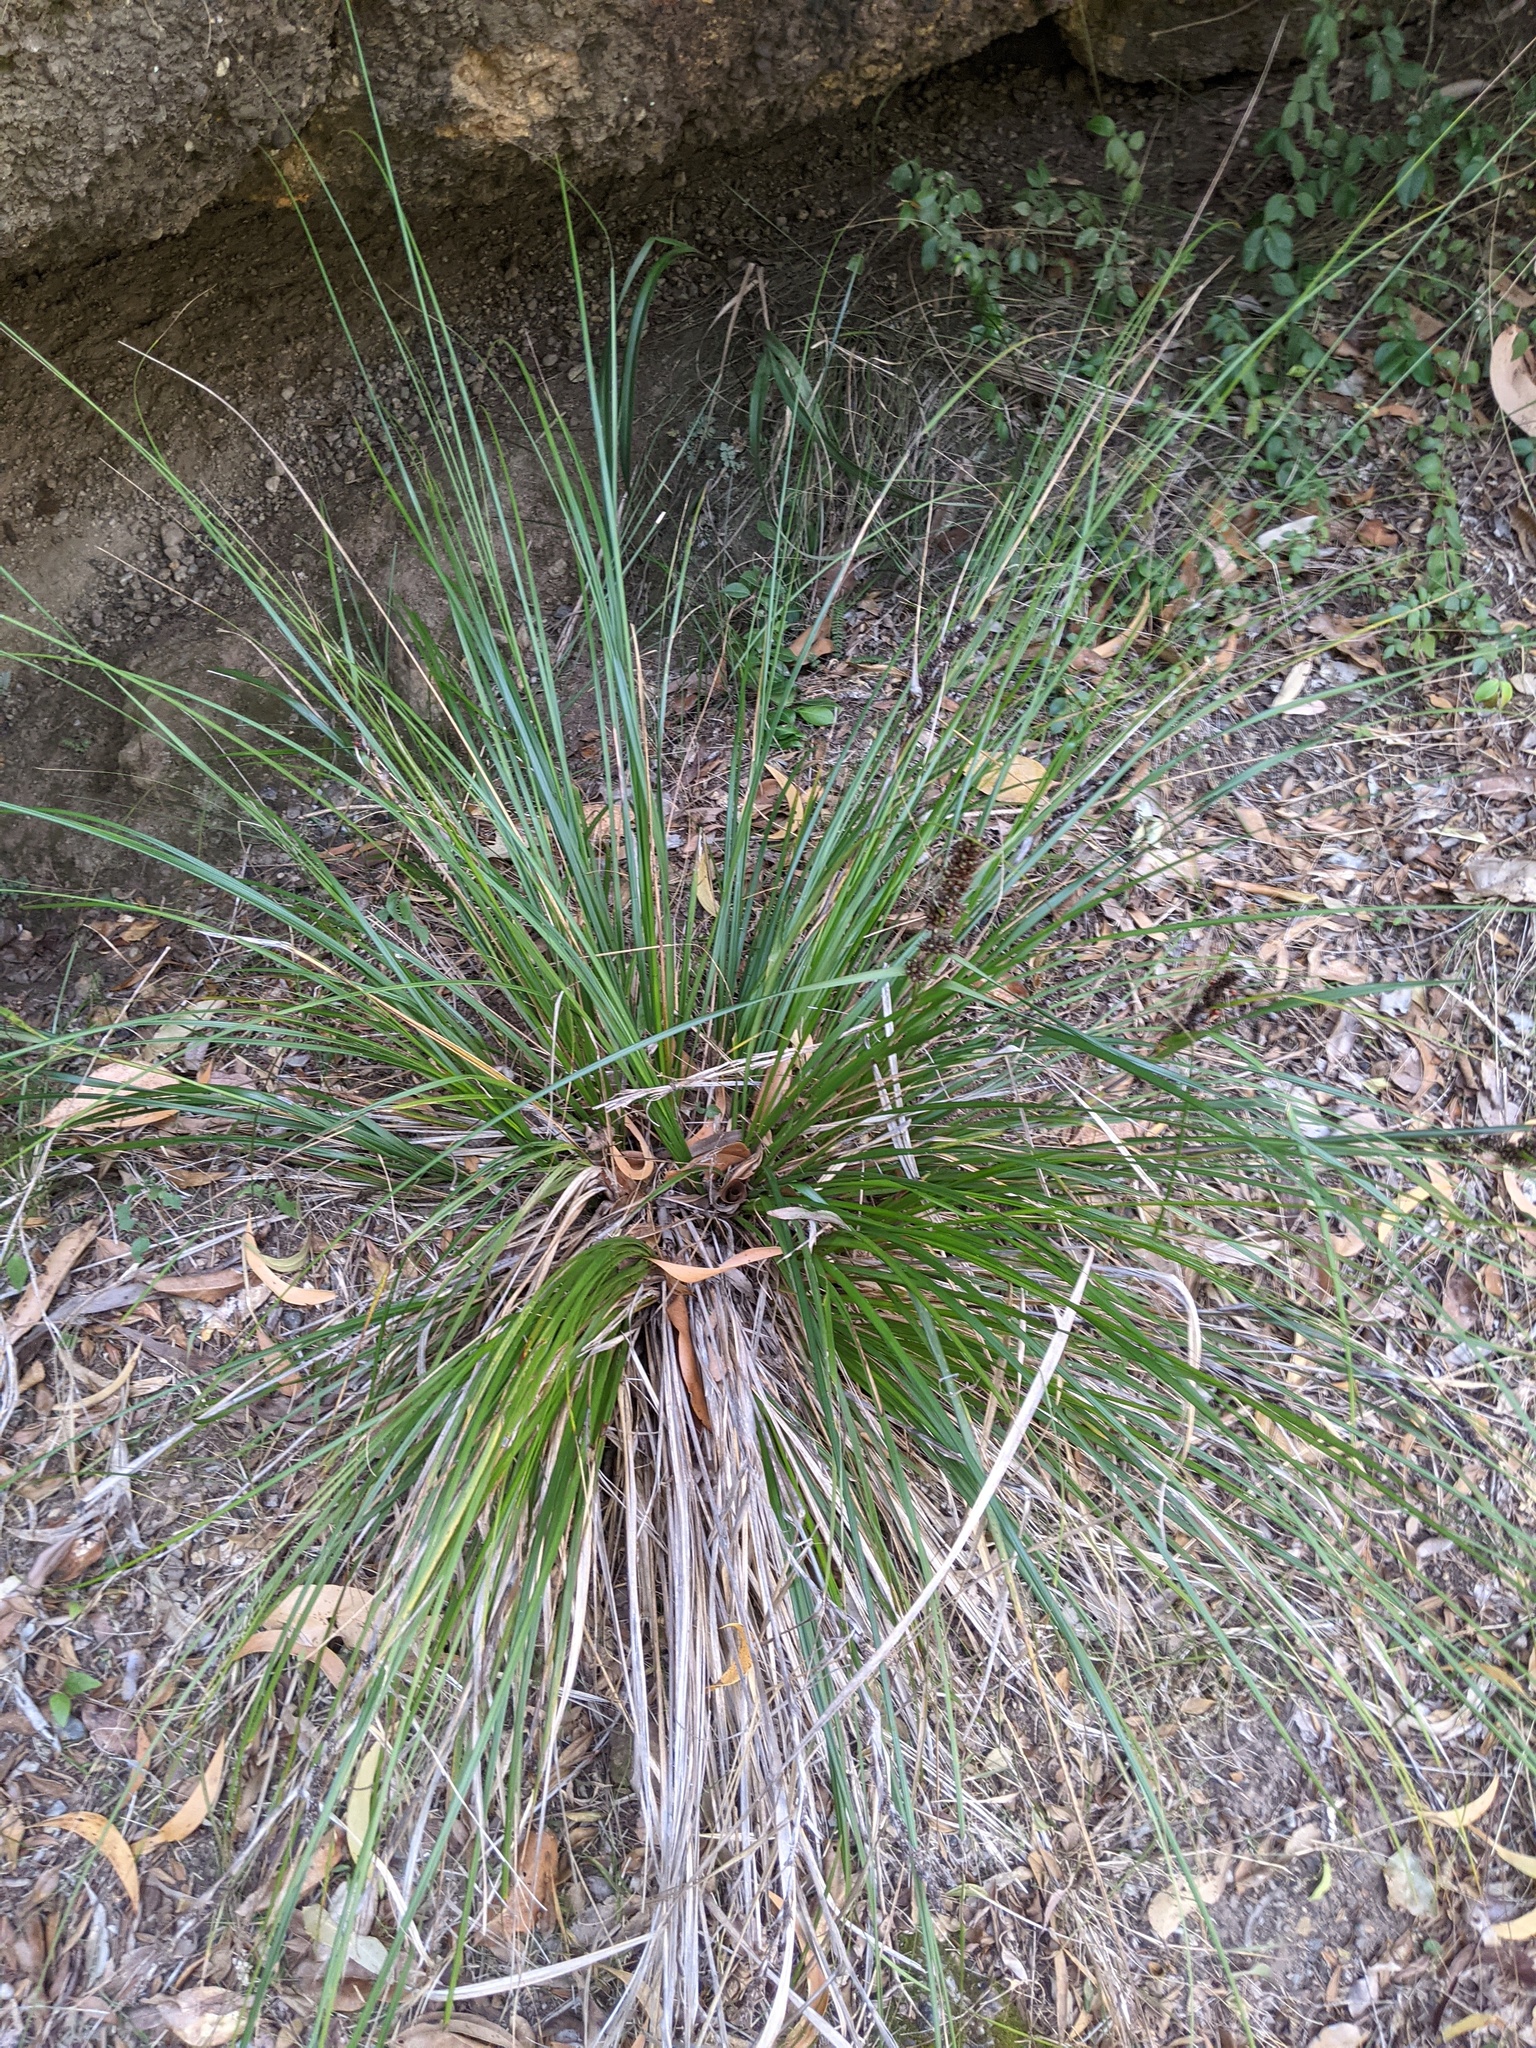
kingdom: Plantae
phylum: Tracheophyta
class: Liliopsida
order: Poales
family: Cyperaceae
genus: Gahnia
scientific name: Gahnia aspera
